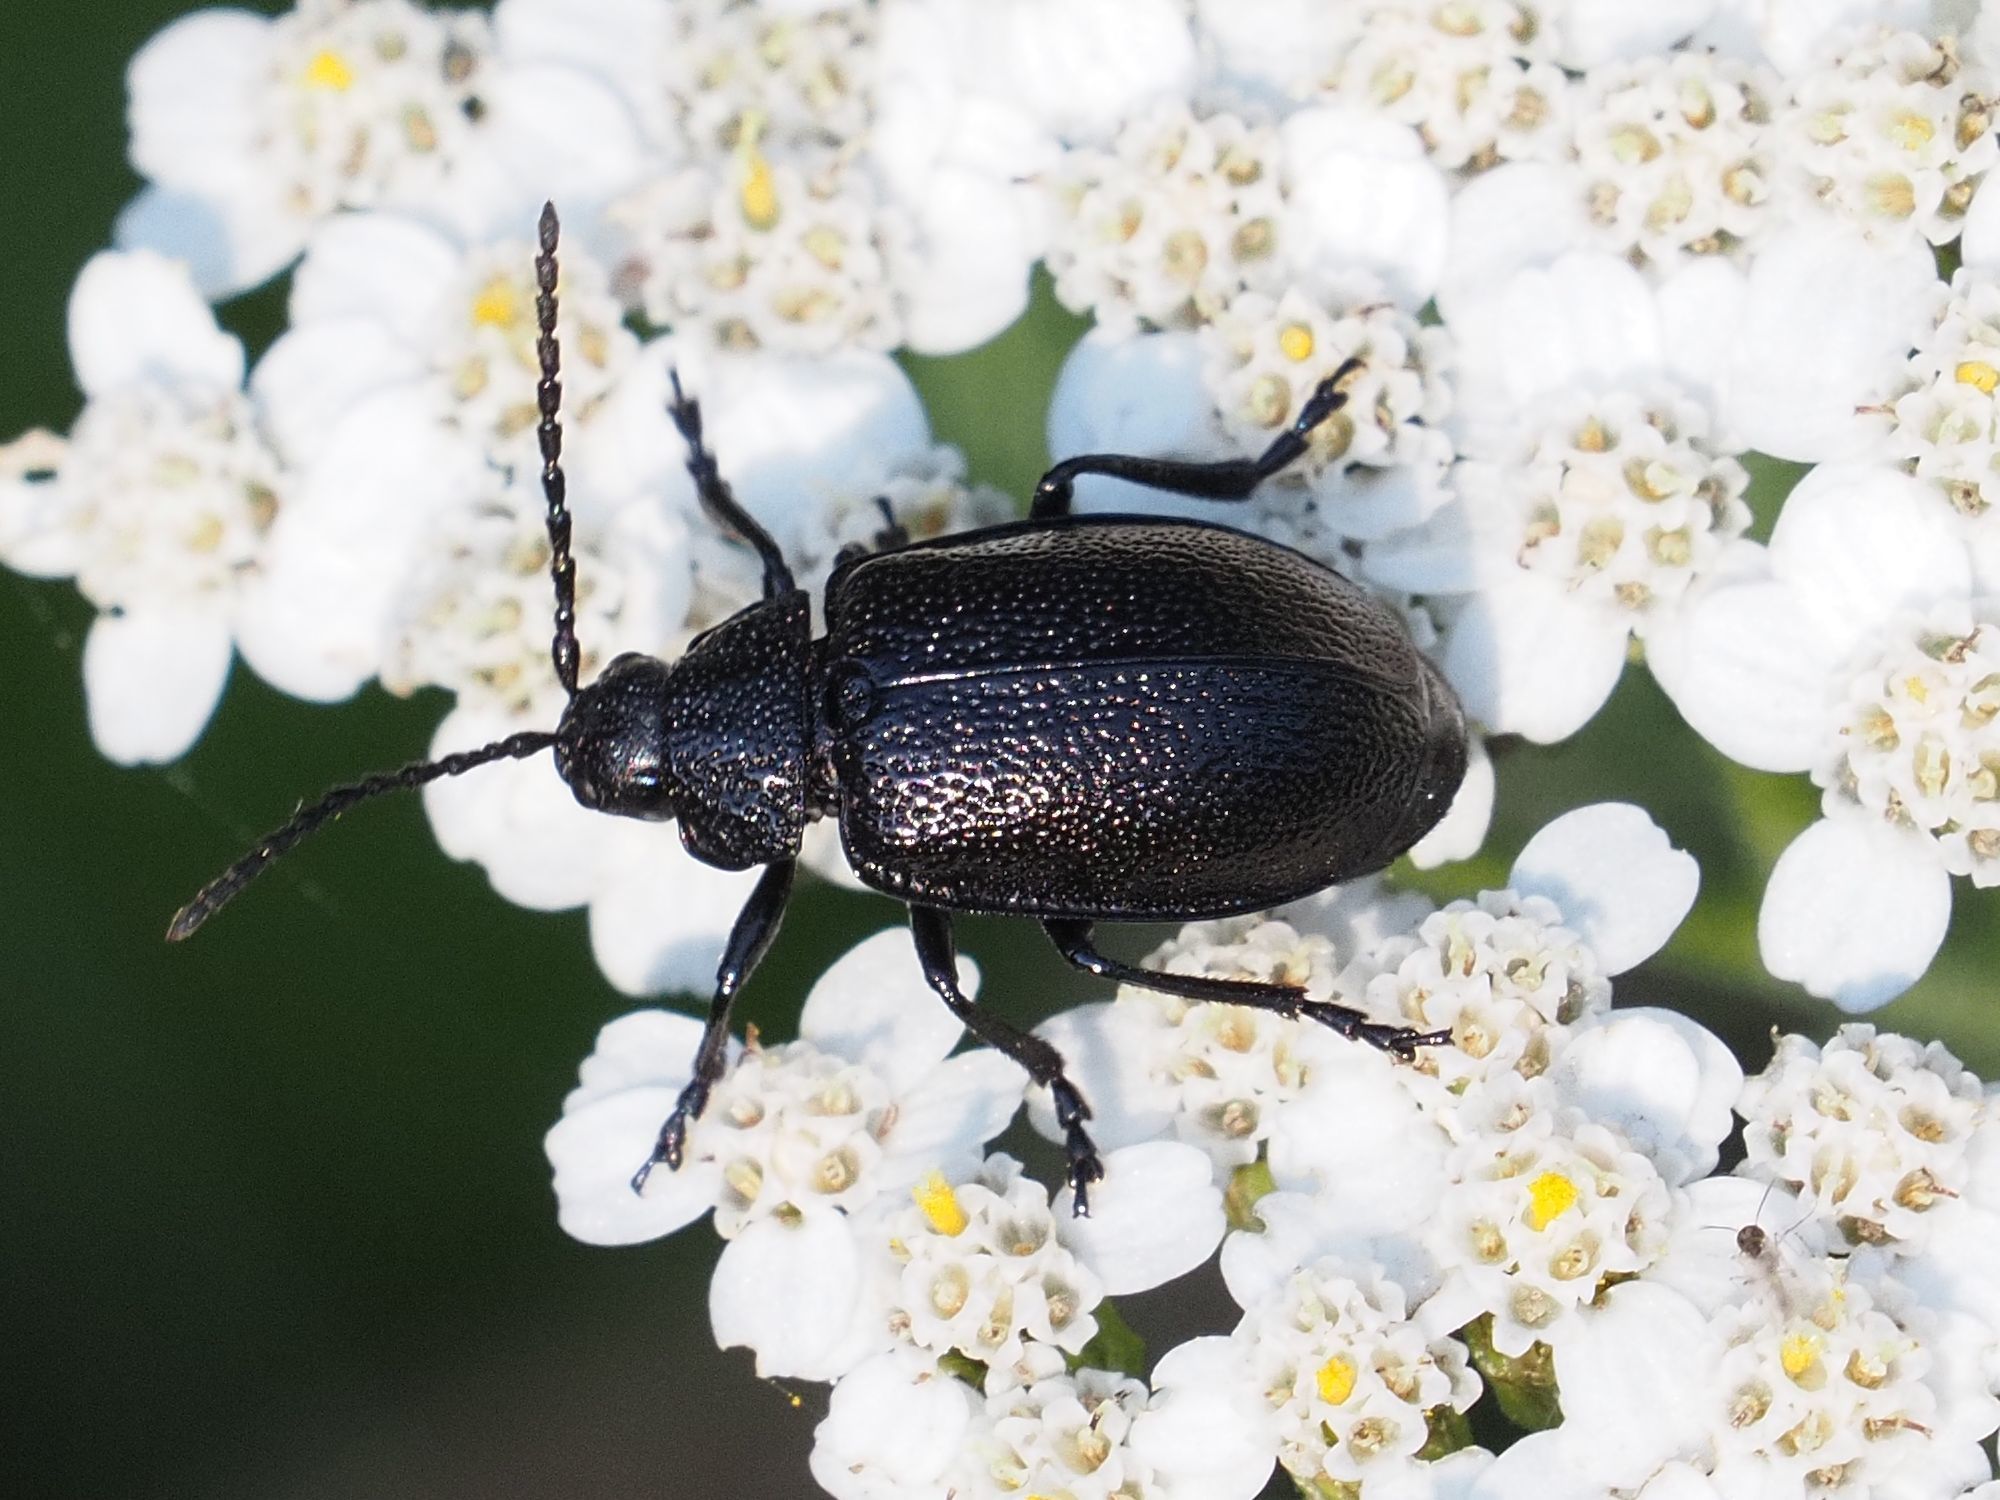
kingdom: Animalia
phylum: Arthropoda
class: Insecta
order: Coleoptera
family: Chrysomelidae
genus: Galeruca
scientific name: Galeruca tanaceti
